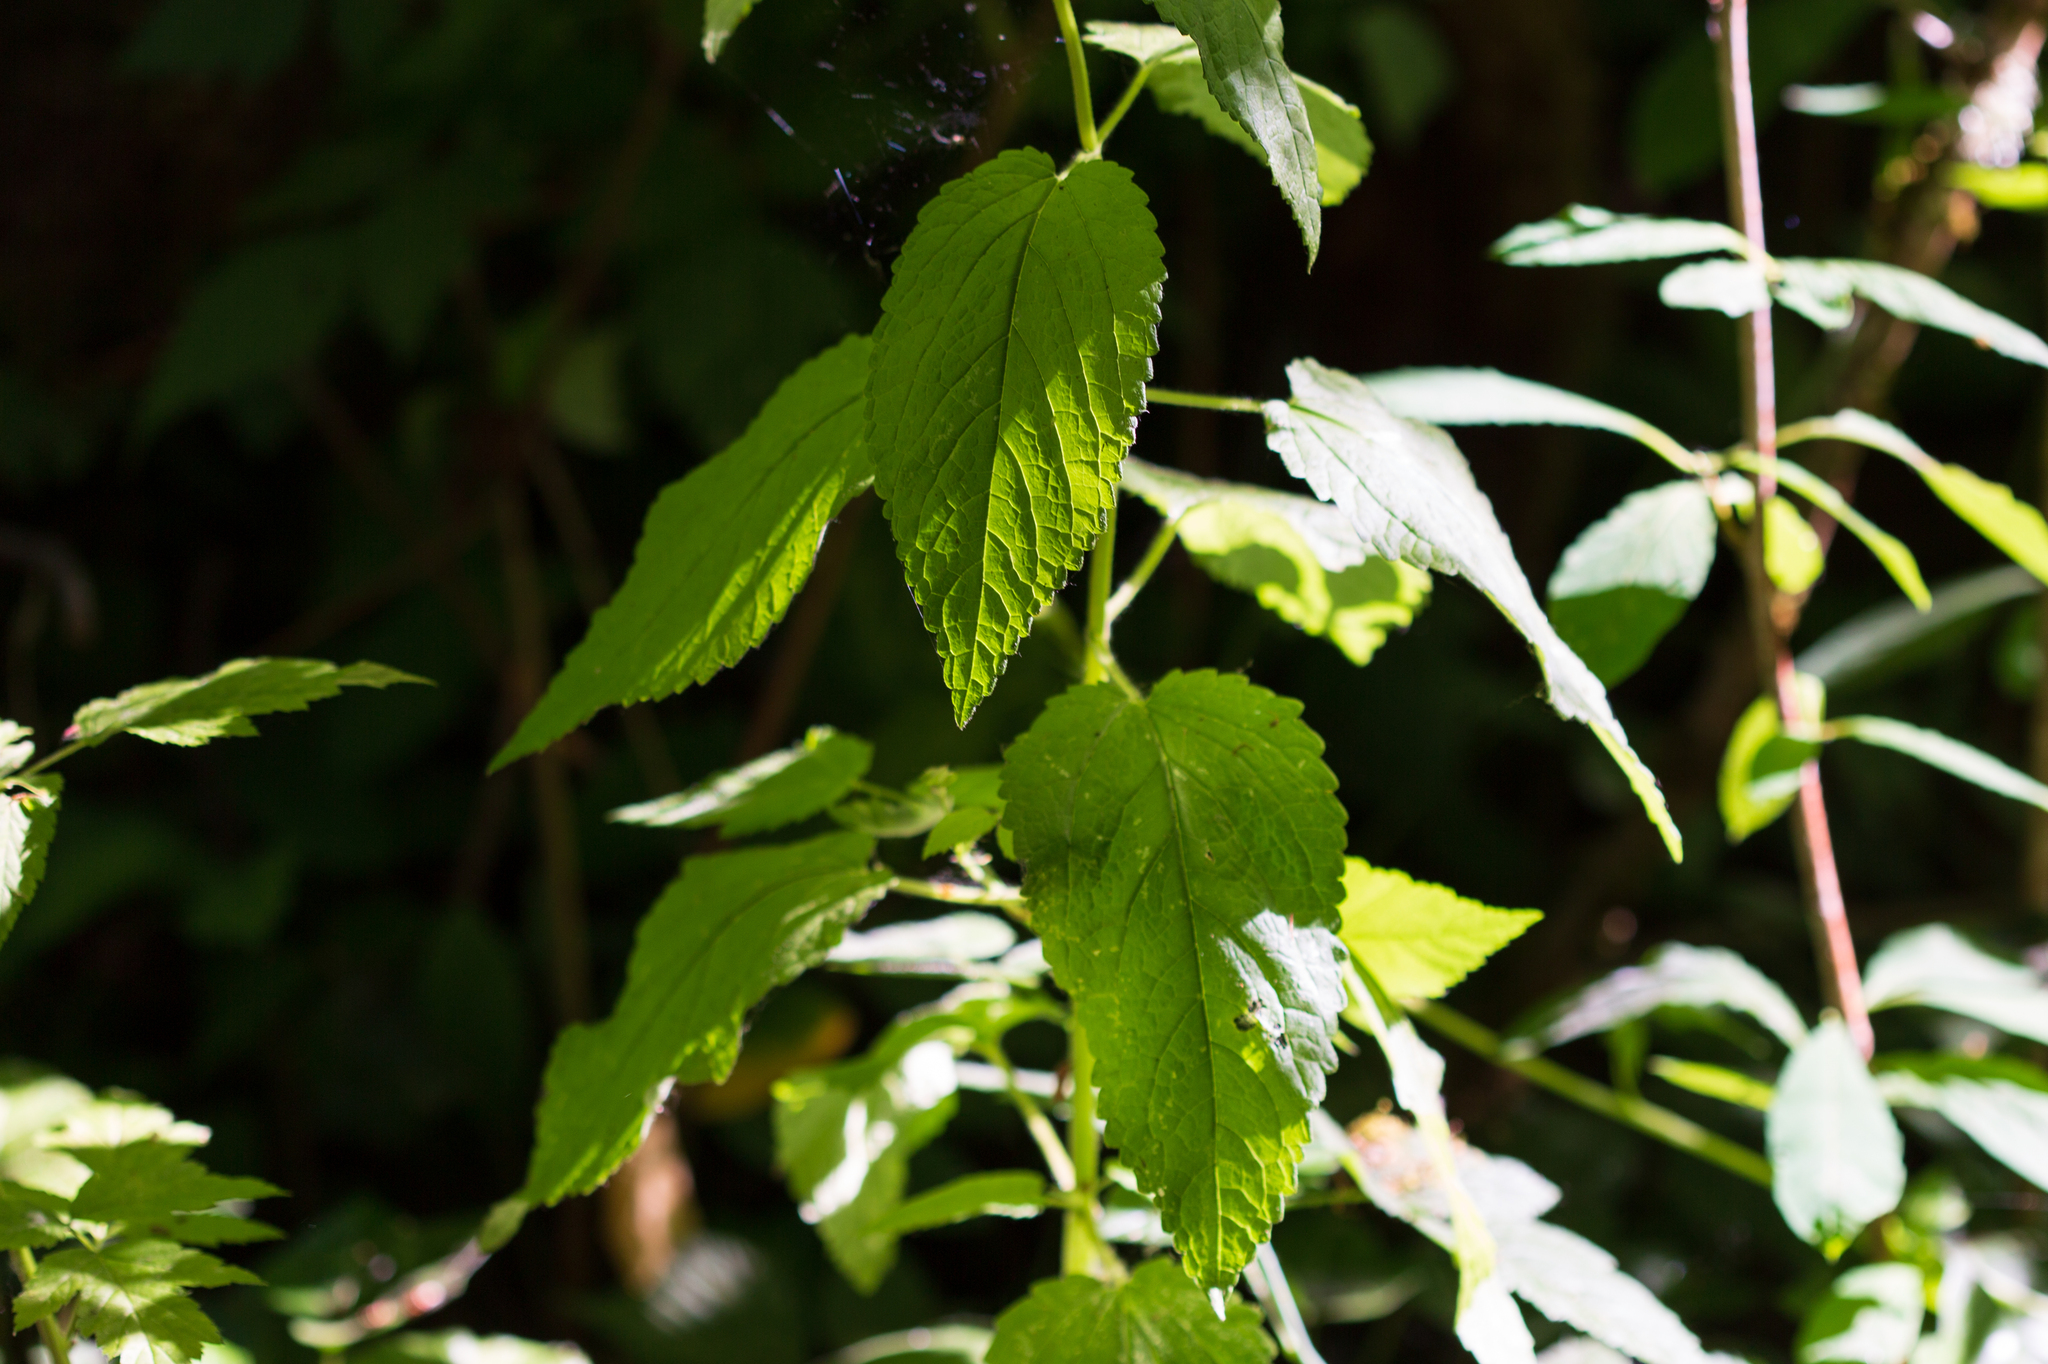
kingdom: Plantae
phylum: Tracheophyta
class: Magnoliopsida
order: Lamiales
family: Lamiaceae
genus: Stachys
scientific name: Stachys chamissonis
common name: Coastal hedge-nettle
